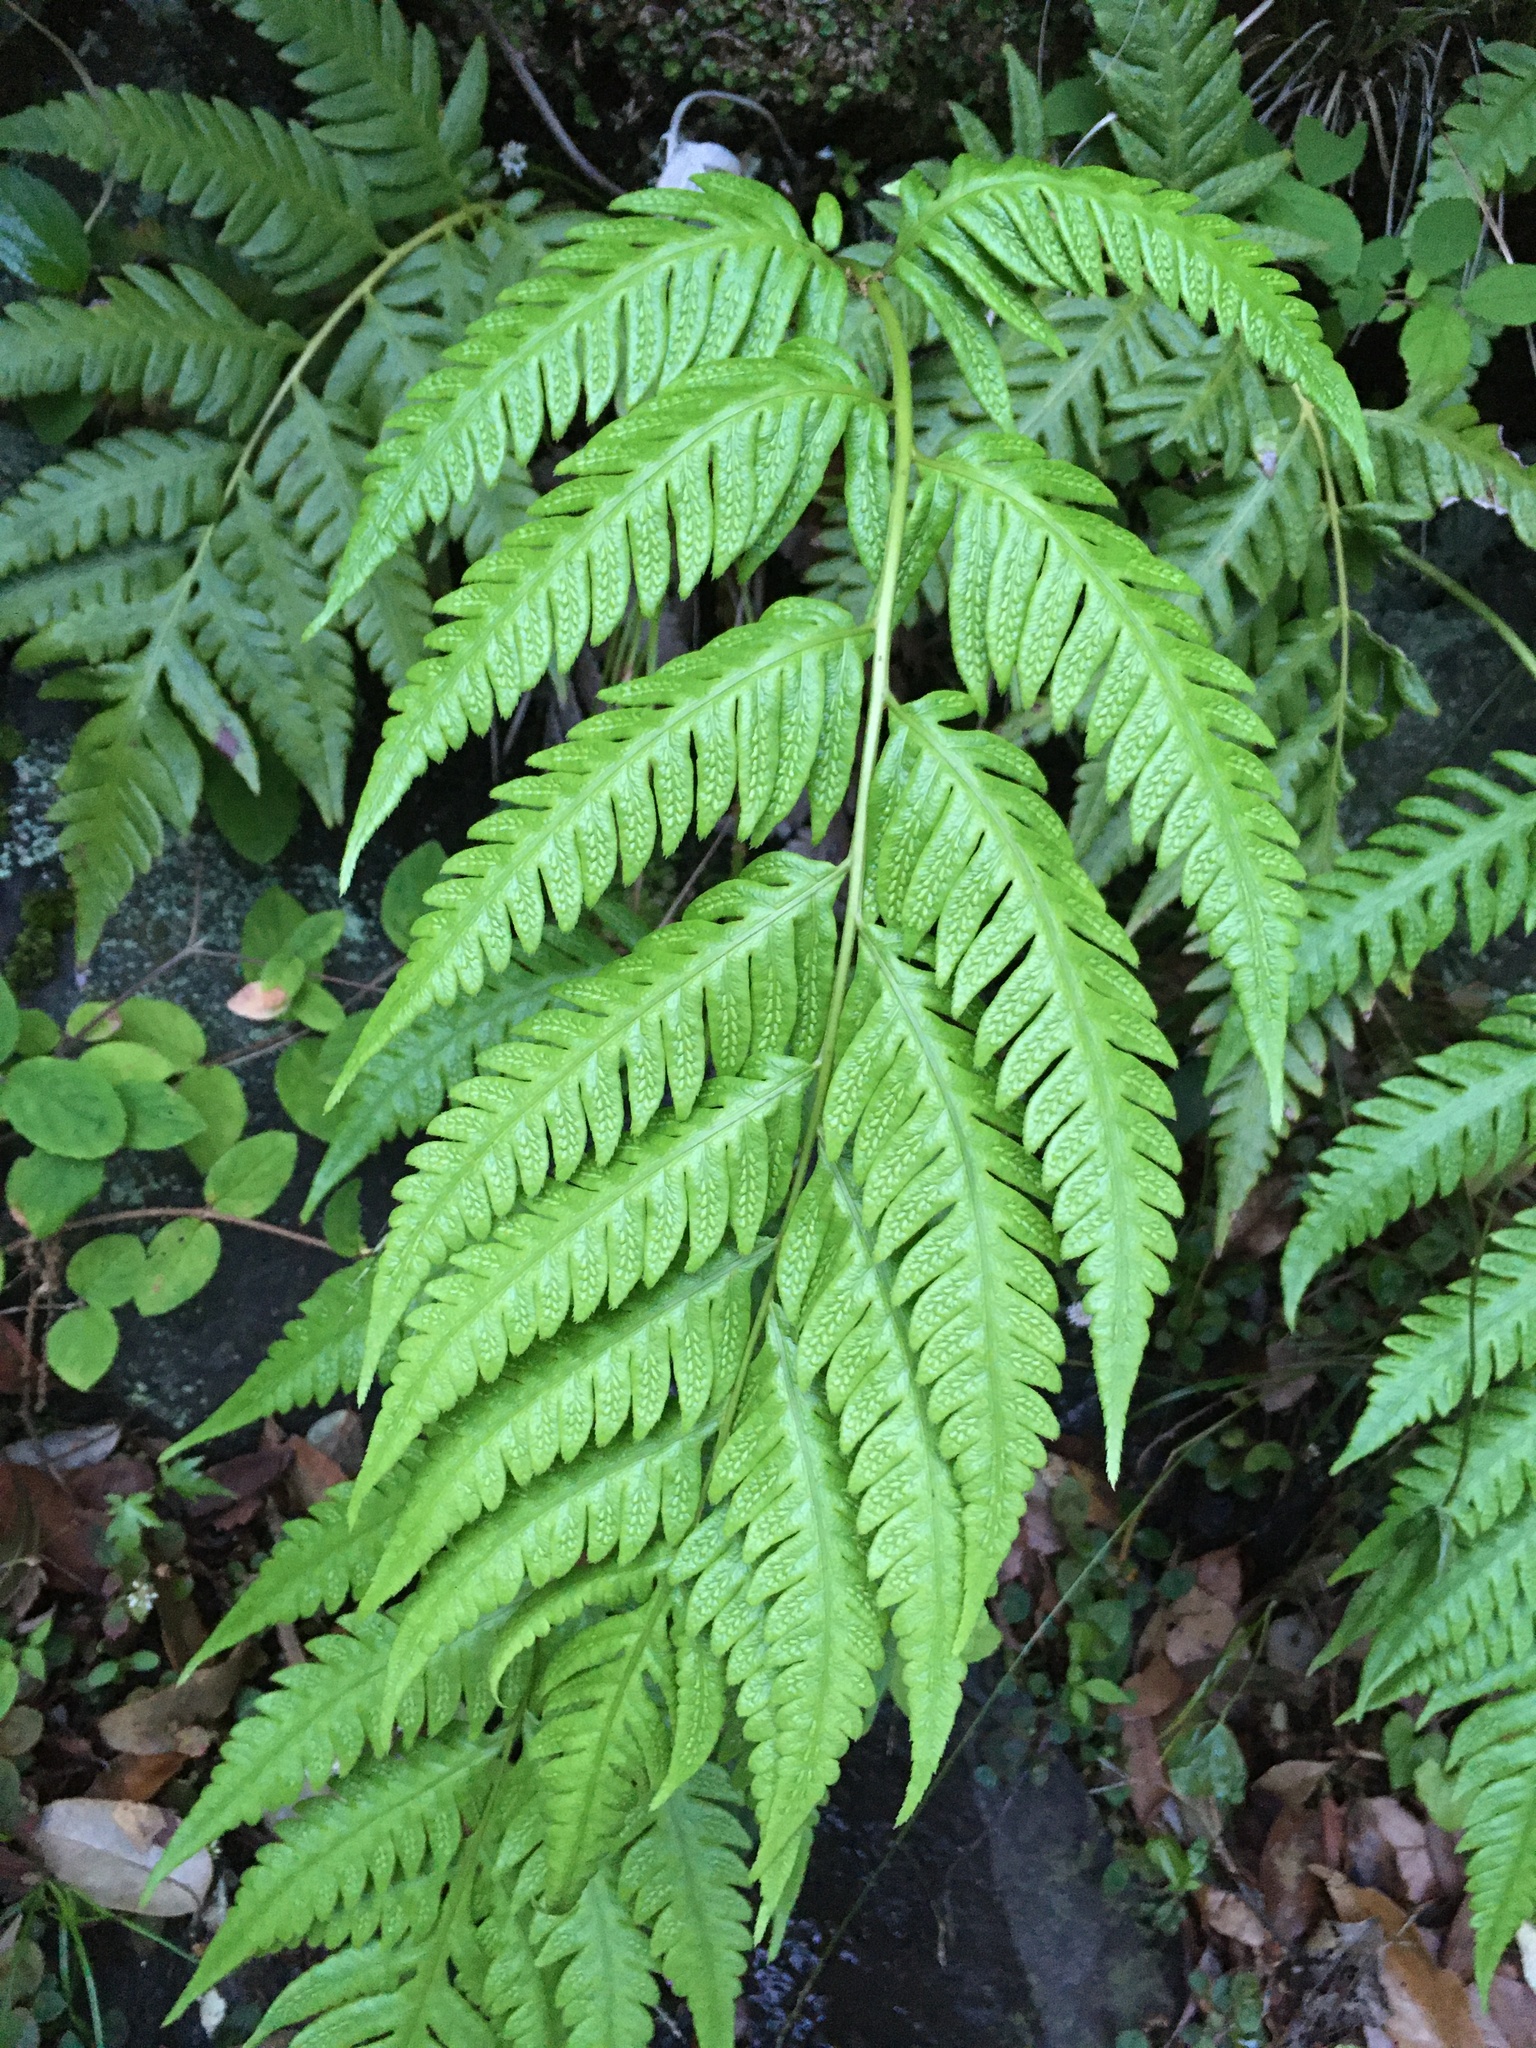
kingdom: Plantae
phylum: Tracheophyta
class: Polypodiopsida
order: Polypodiales
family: Blechnaceae
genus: Woodwardia
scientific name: Woodwardia orientalis
